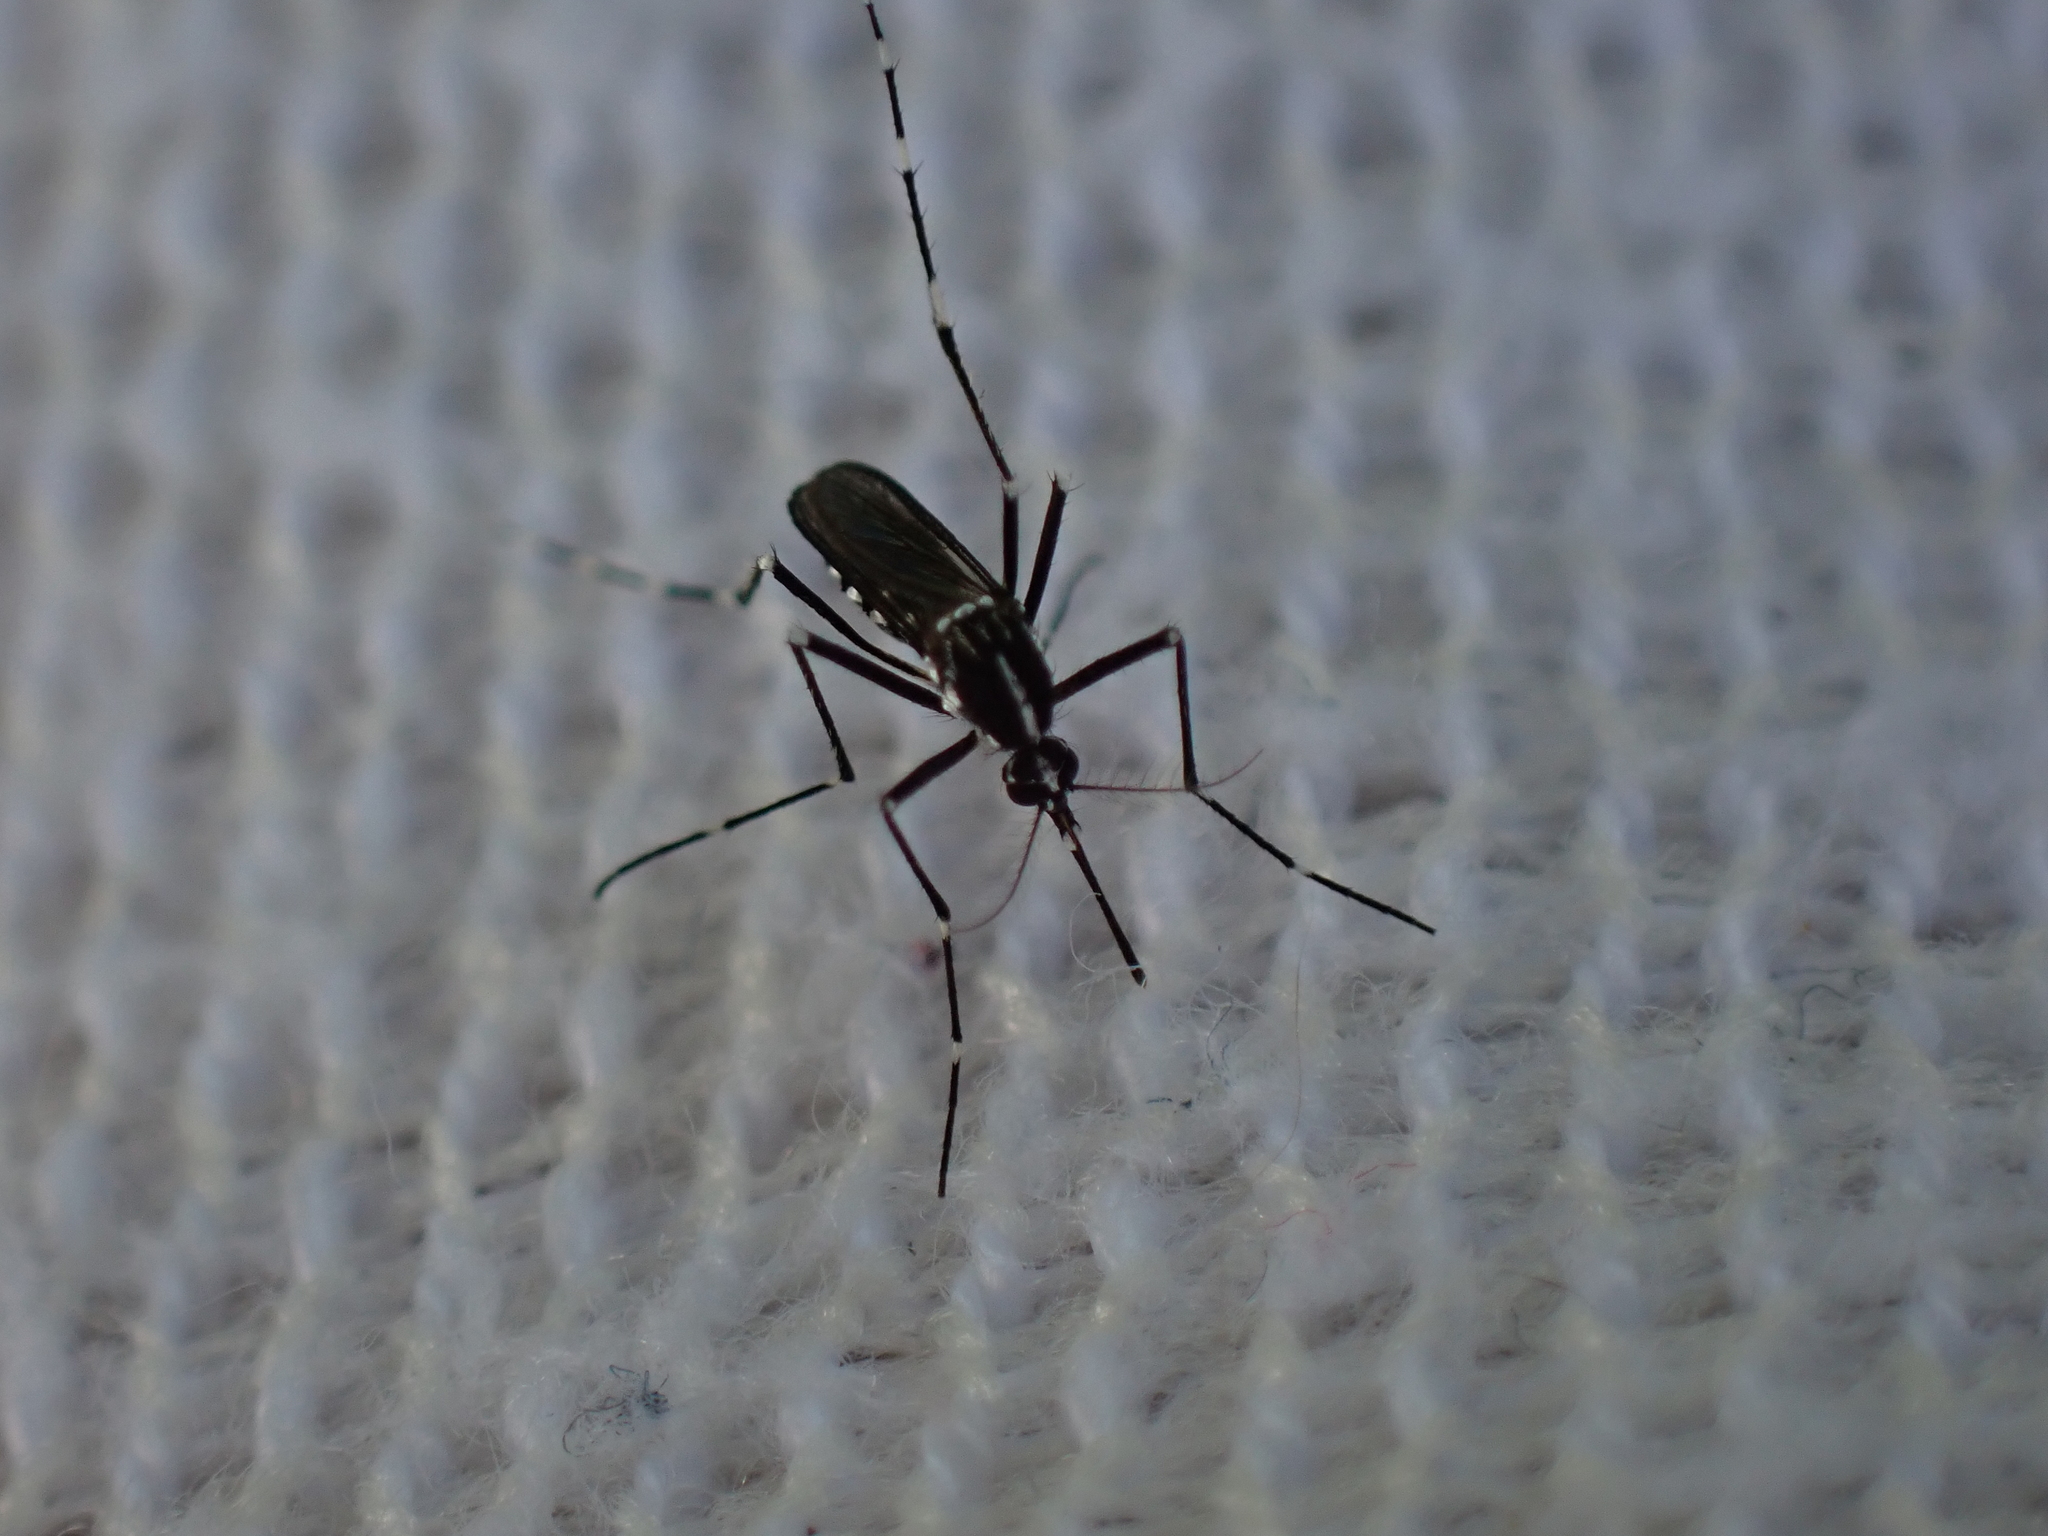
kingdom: Animalia
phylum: Arthropoda
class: Insecta
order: Diptera
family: Culicidae
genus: Aedes
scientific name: Aedes albopictus
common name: Tiger mosquito
